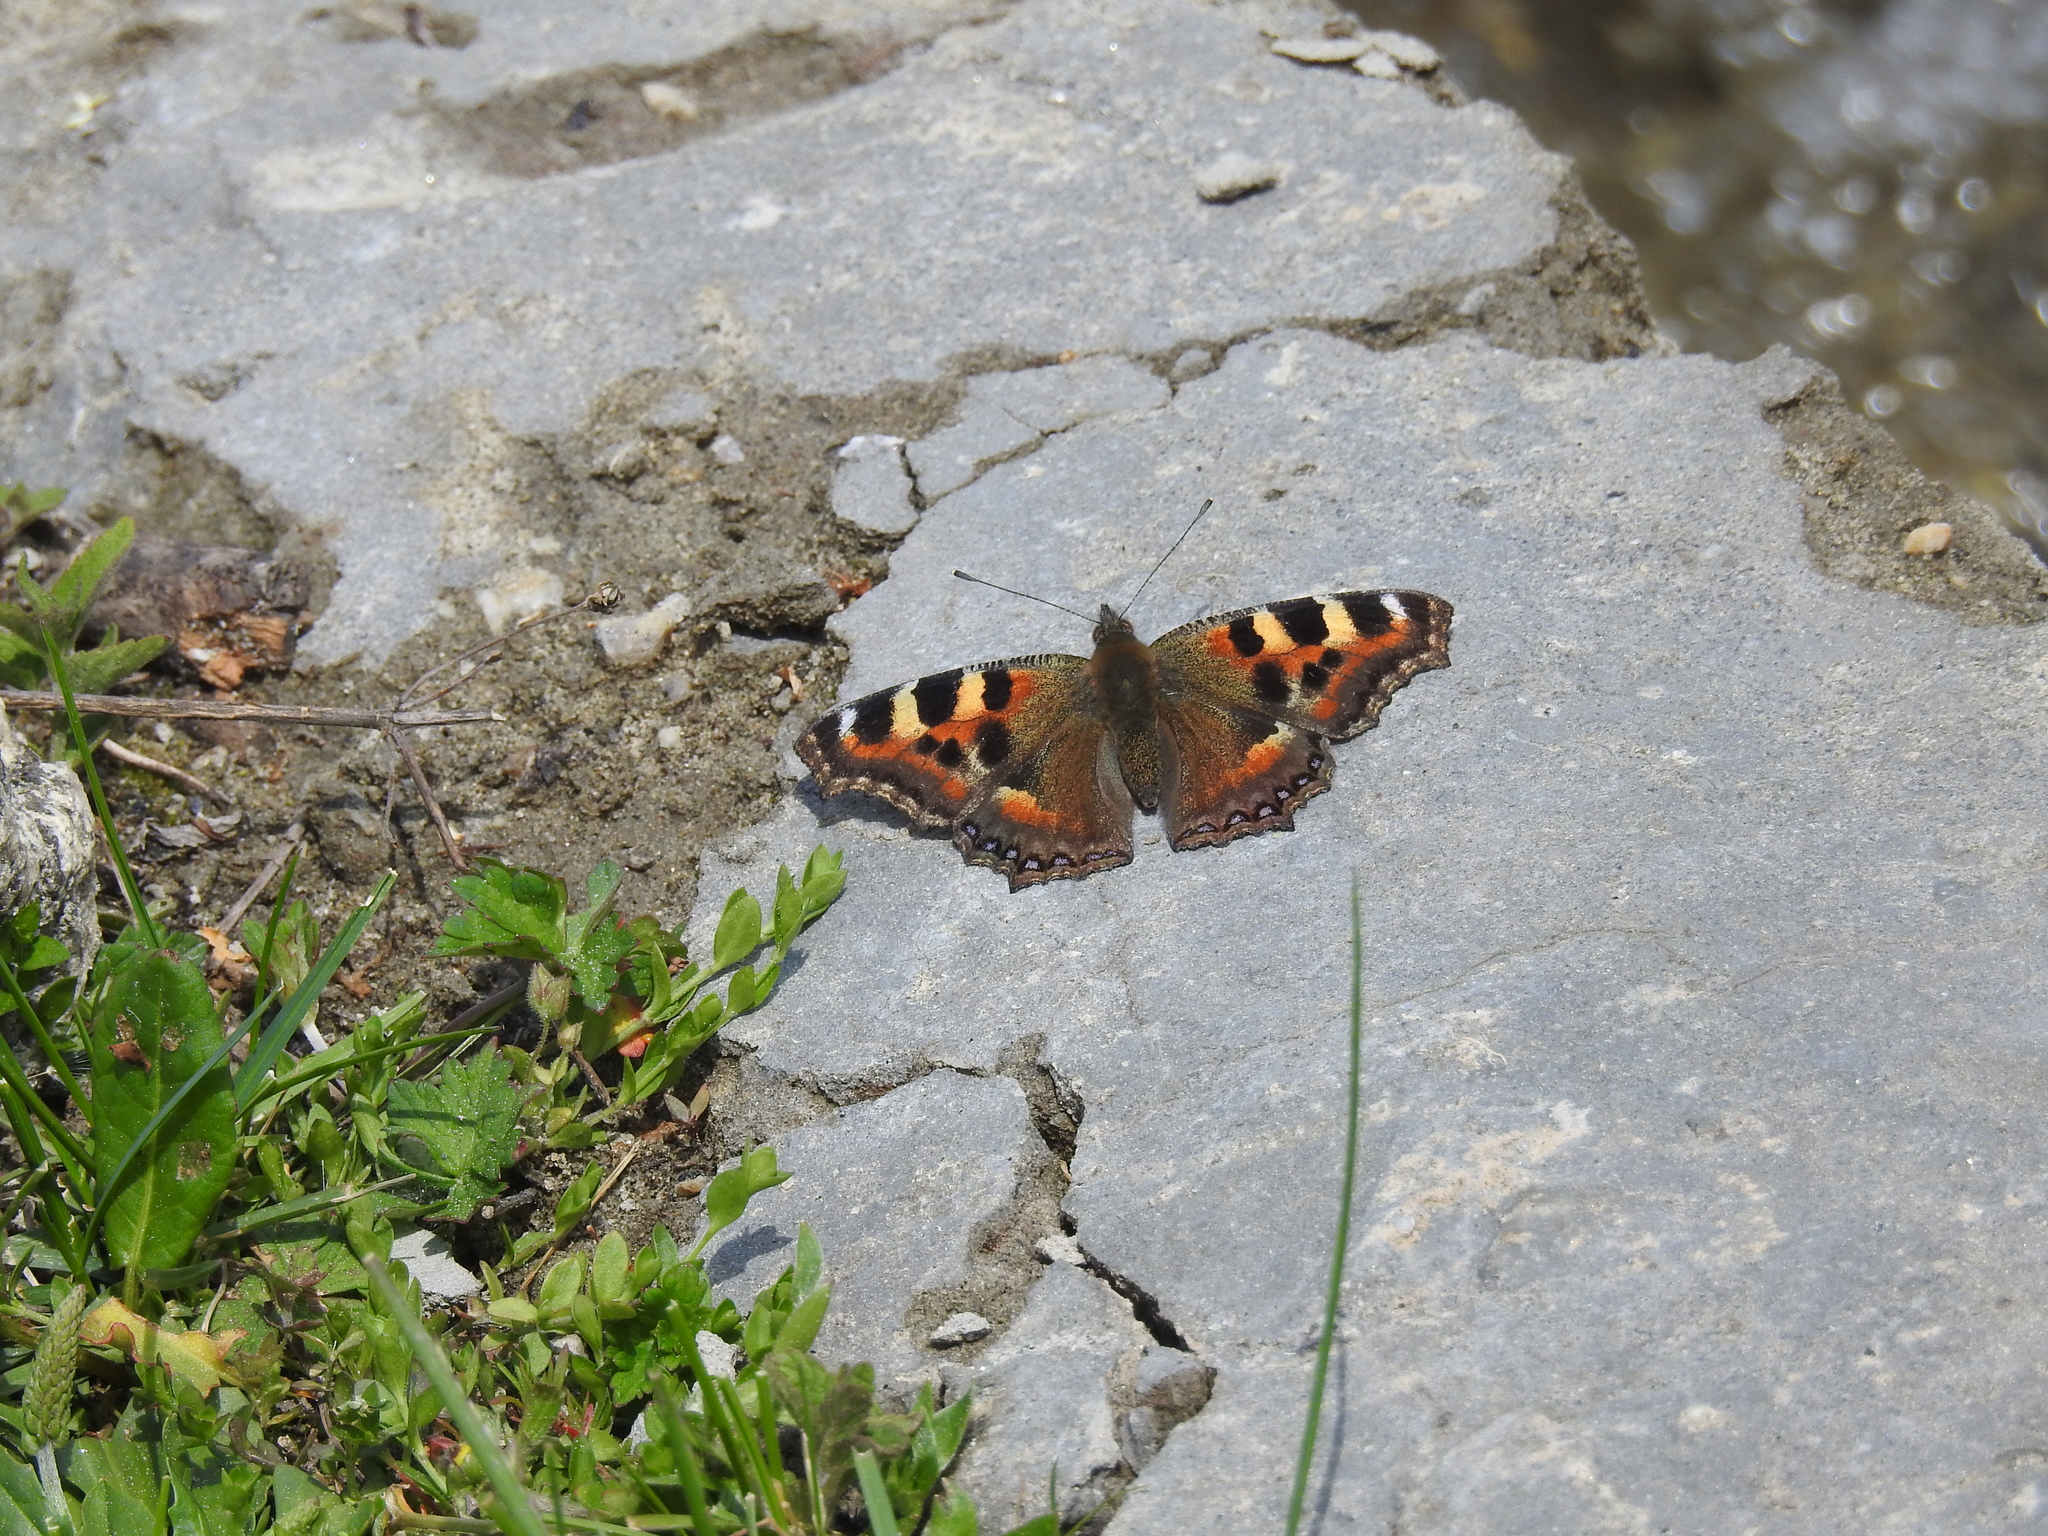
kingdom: Animalia
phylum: Arthropoda
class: Insecta
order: Lepidoptera
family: Nymphalidae
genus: Aglais
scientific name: Aglais caschmirensis
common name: Indian tortoiseshell
